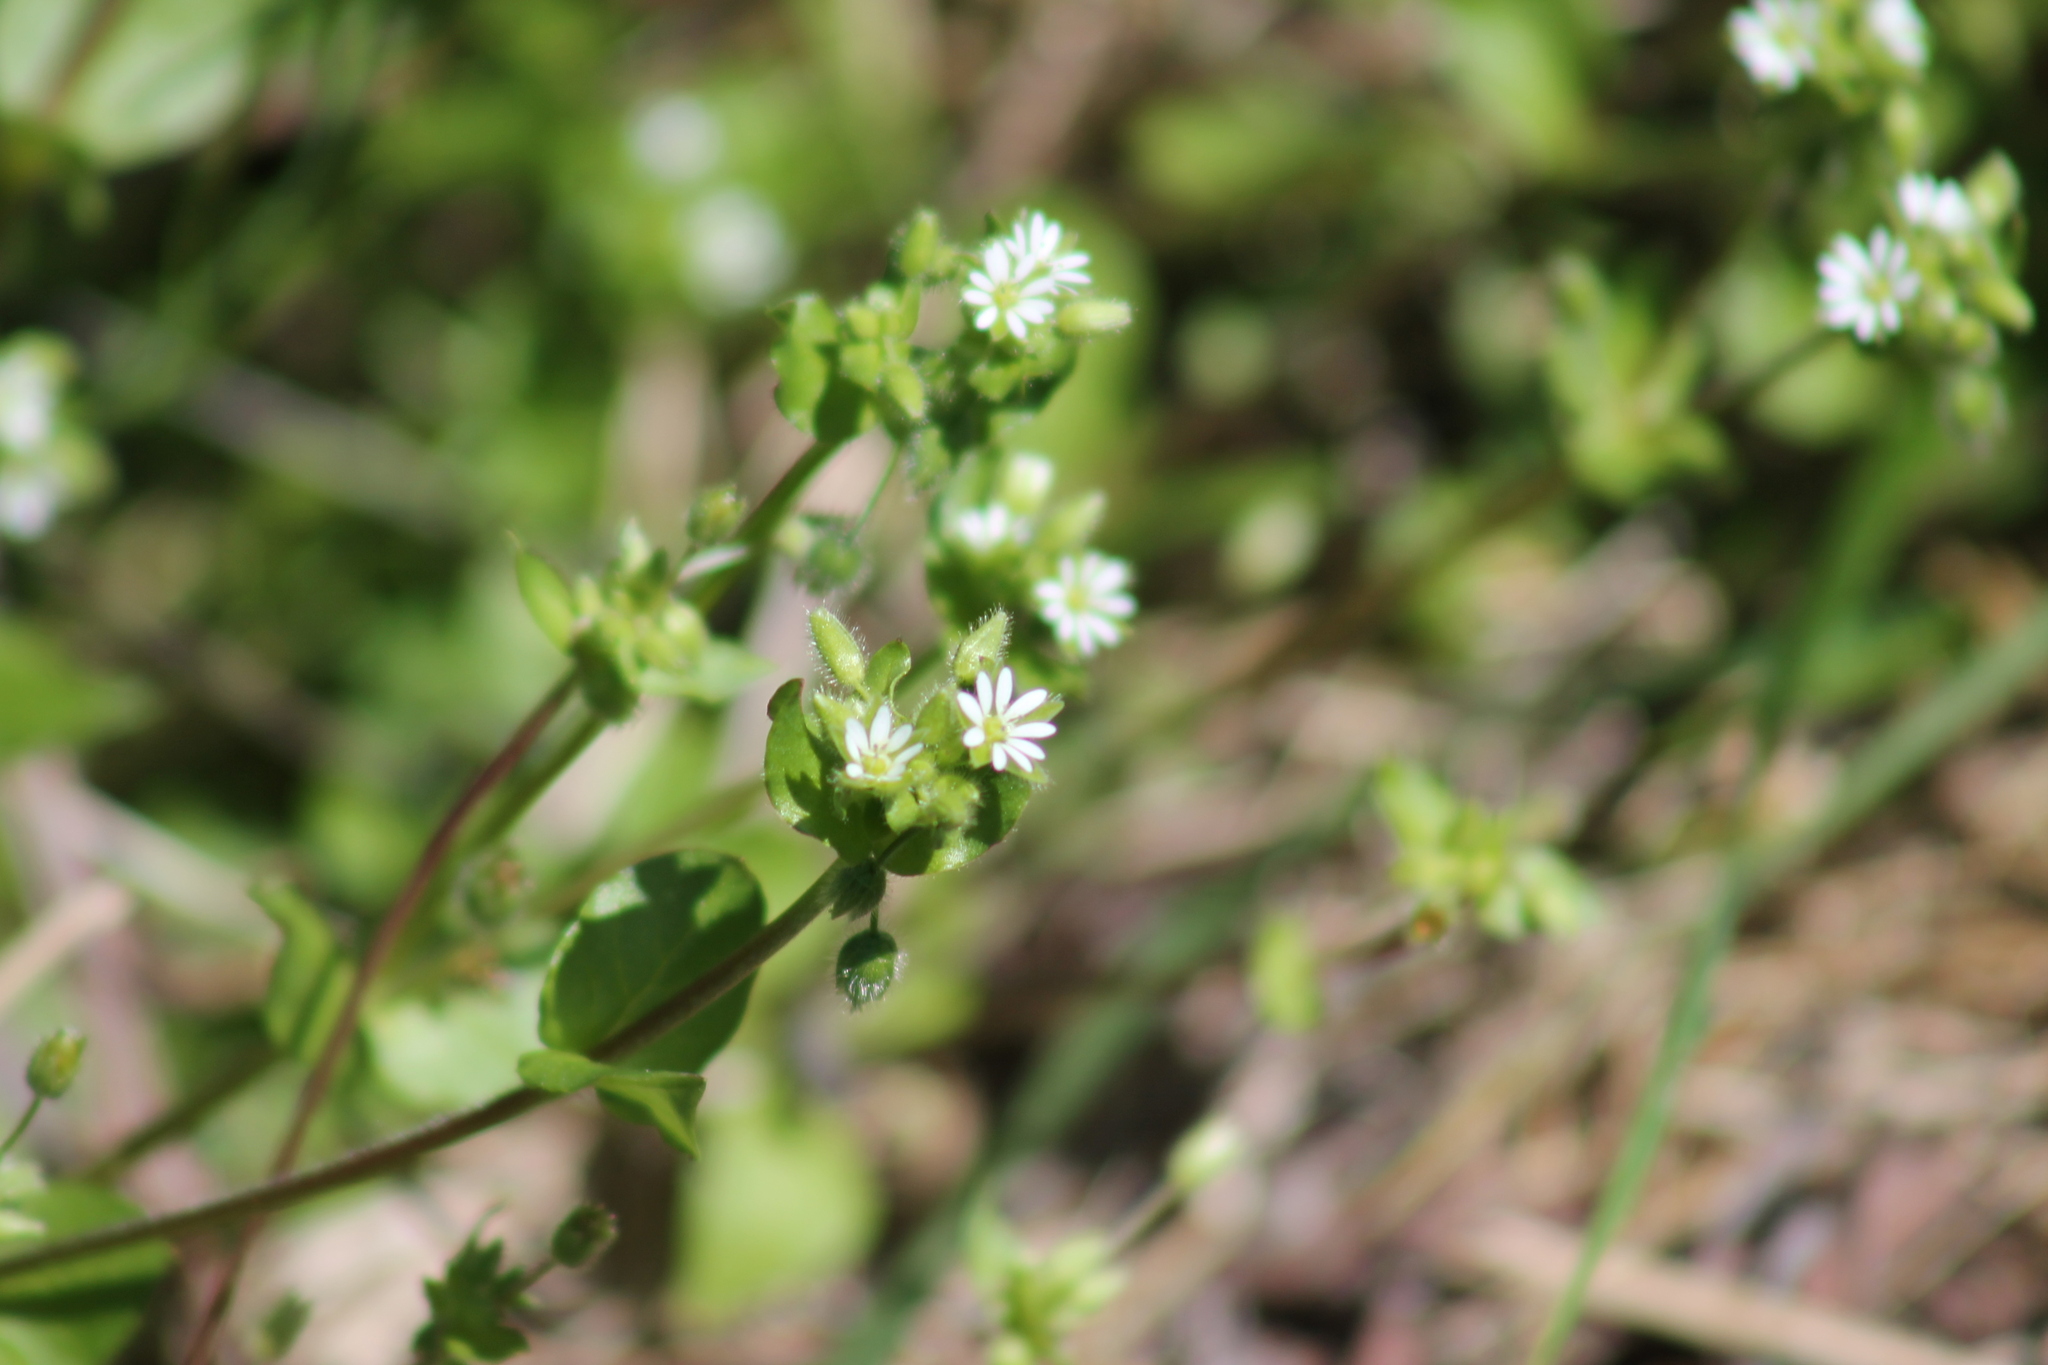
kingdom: Plantae
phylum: Tracheophyta
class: Magnoliopsida
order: Caryophyllales
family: Caryophyllaceae
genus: Stellaria
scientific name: Stellaria media
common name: Common chickweed
